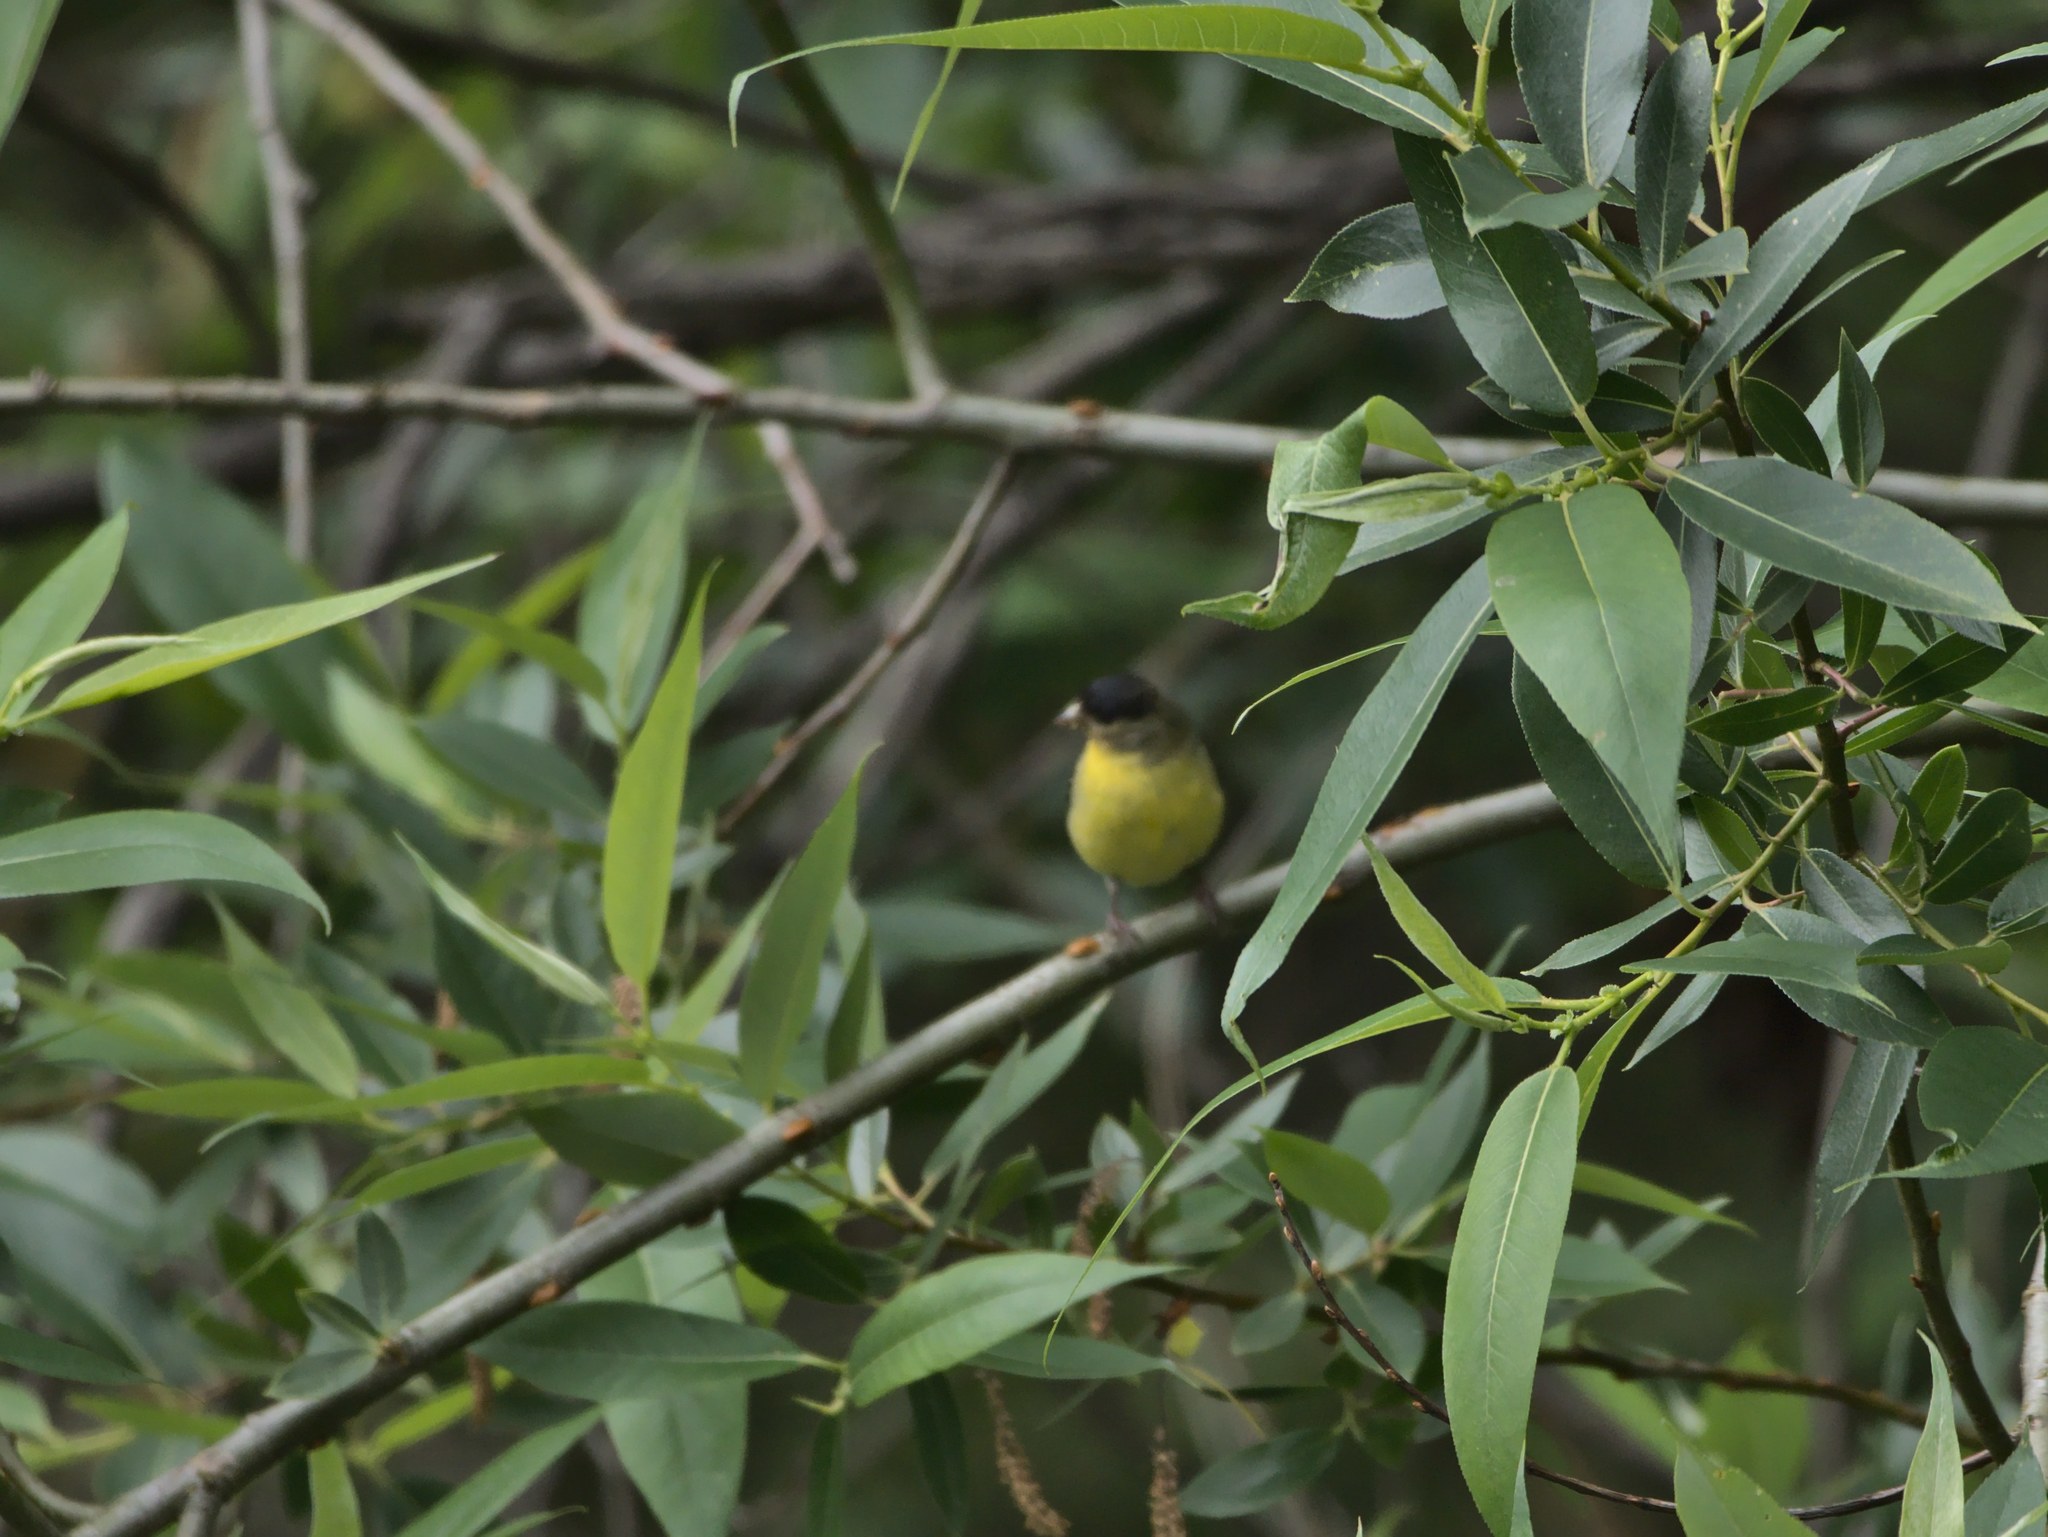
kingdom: Animalia
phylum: Chordata
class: Aves
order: Passeriformes
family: Fringillidae
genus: Spinus
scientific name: Spinus psaltria
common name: Lesser goldfinch
